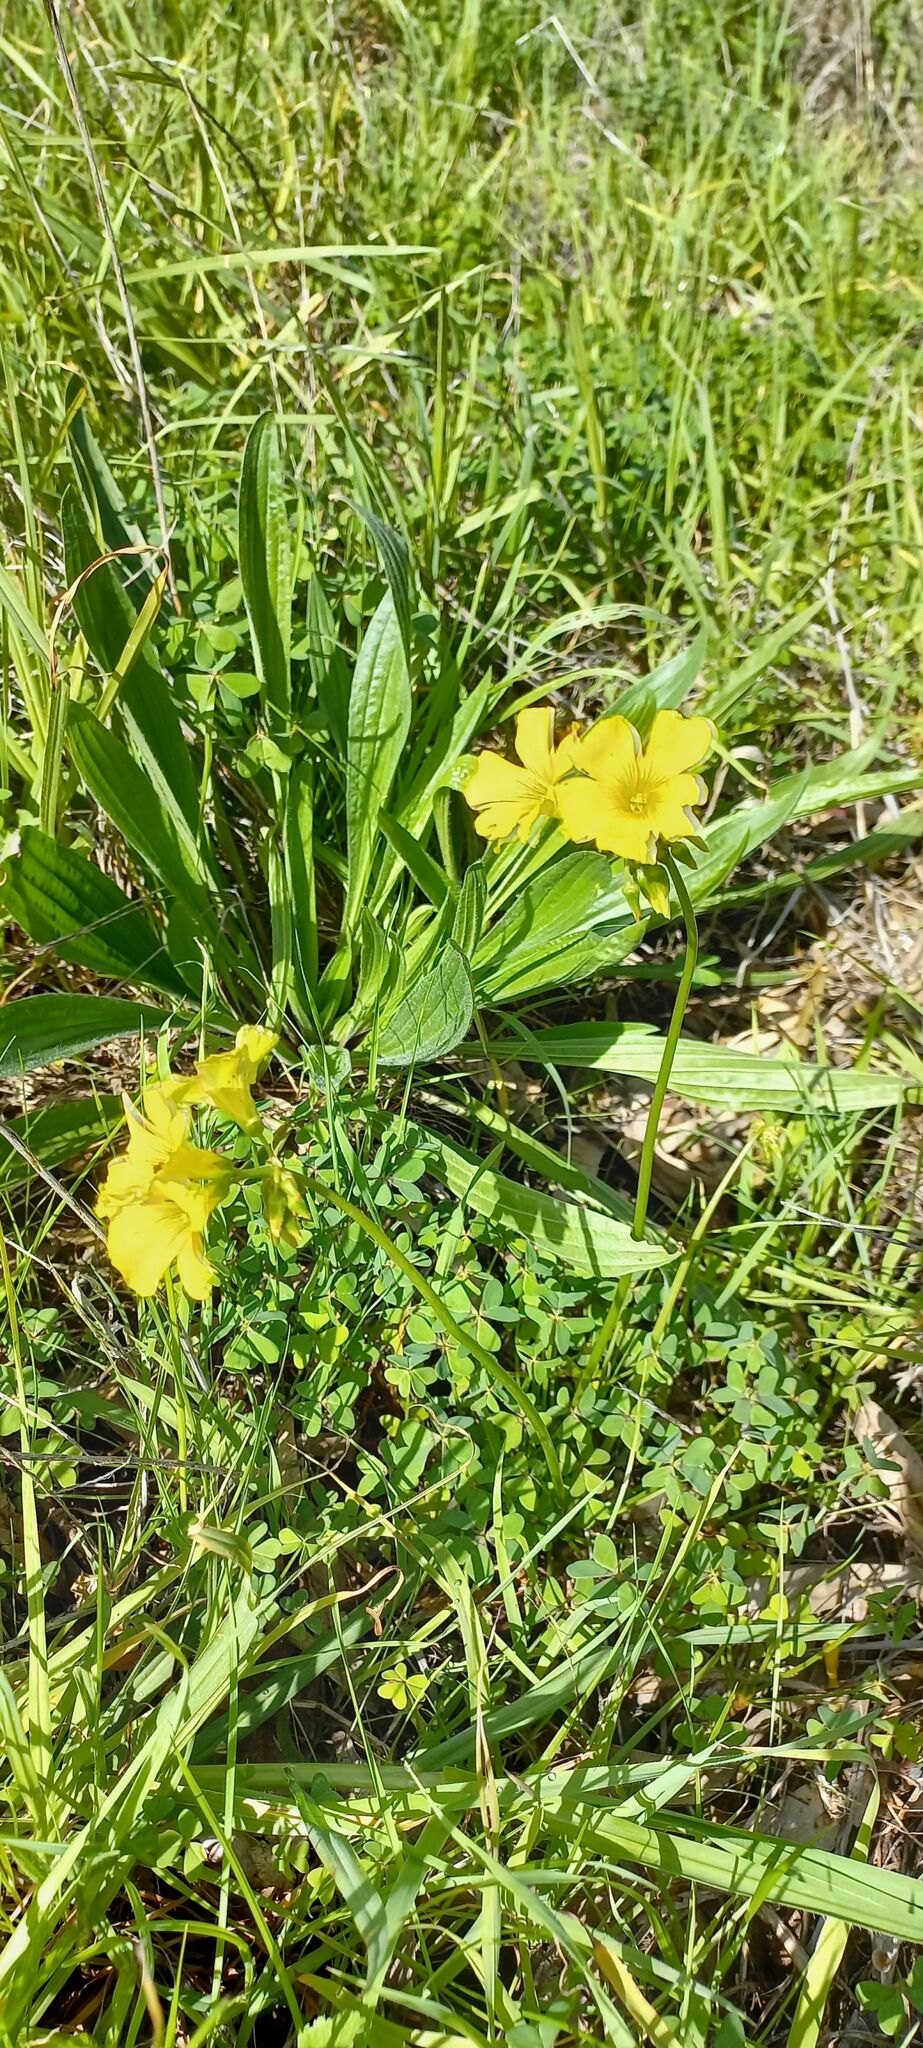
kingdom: Plantae
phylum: Tracheophyta
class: Magnoliopsida
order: Oxalidales
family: Oxalidaceae
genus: Oxalis
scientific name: Oxalis pes-caprae
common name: Bermuda-buttercup
